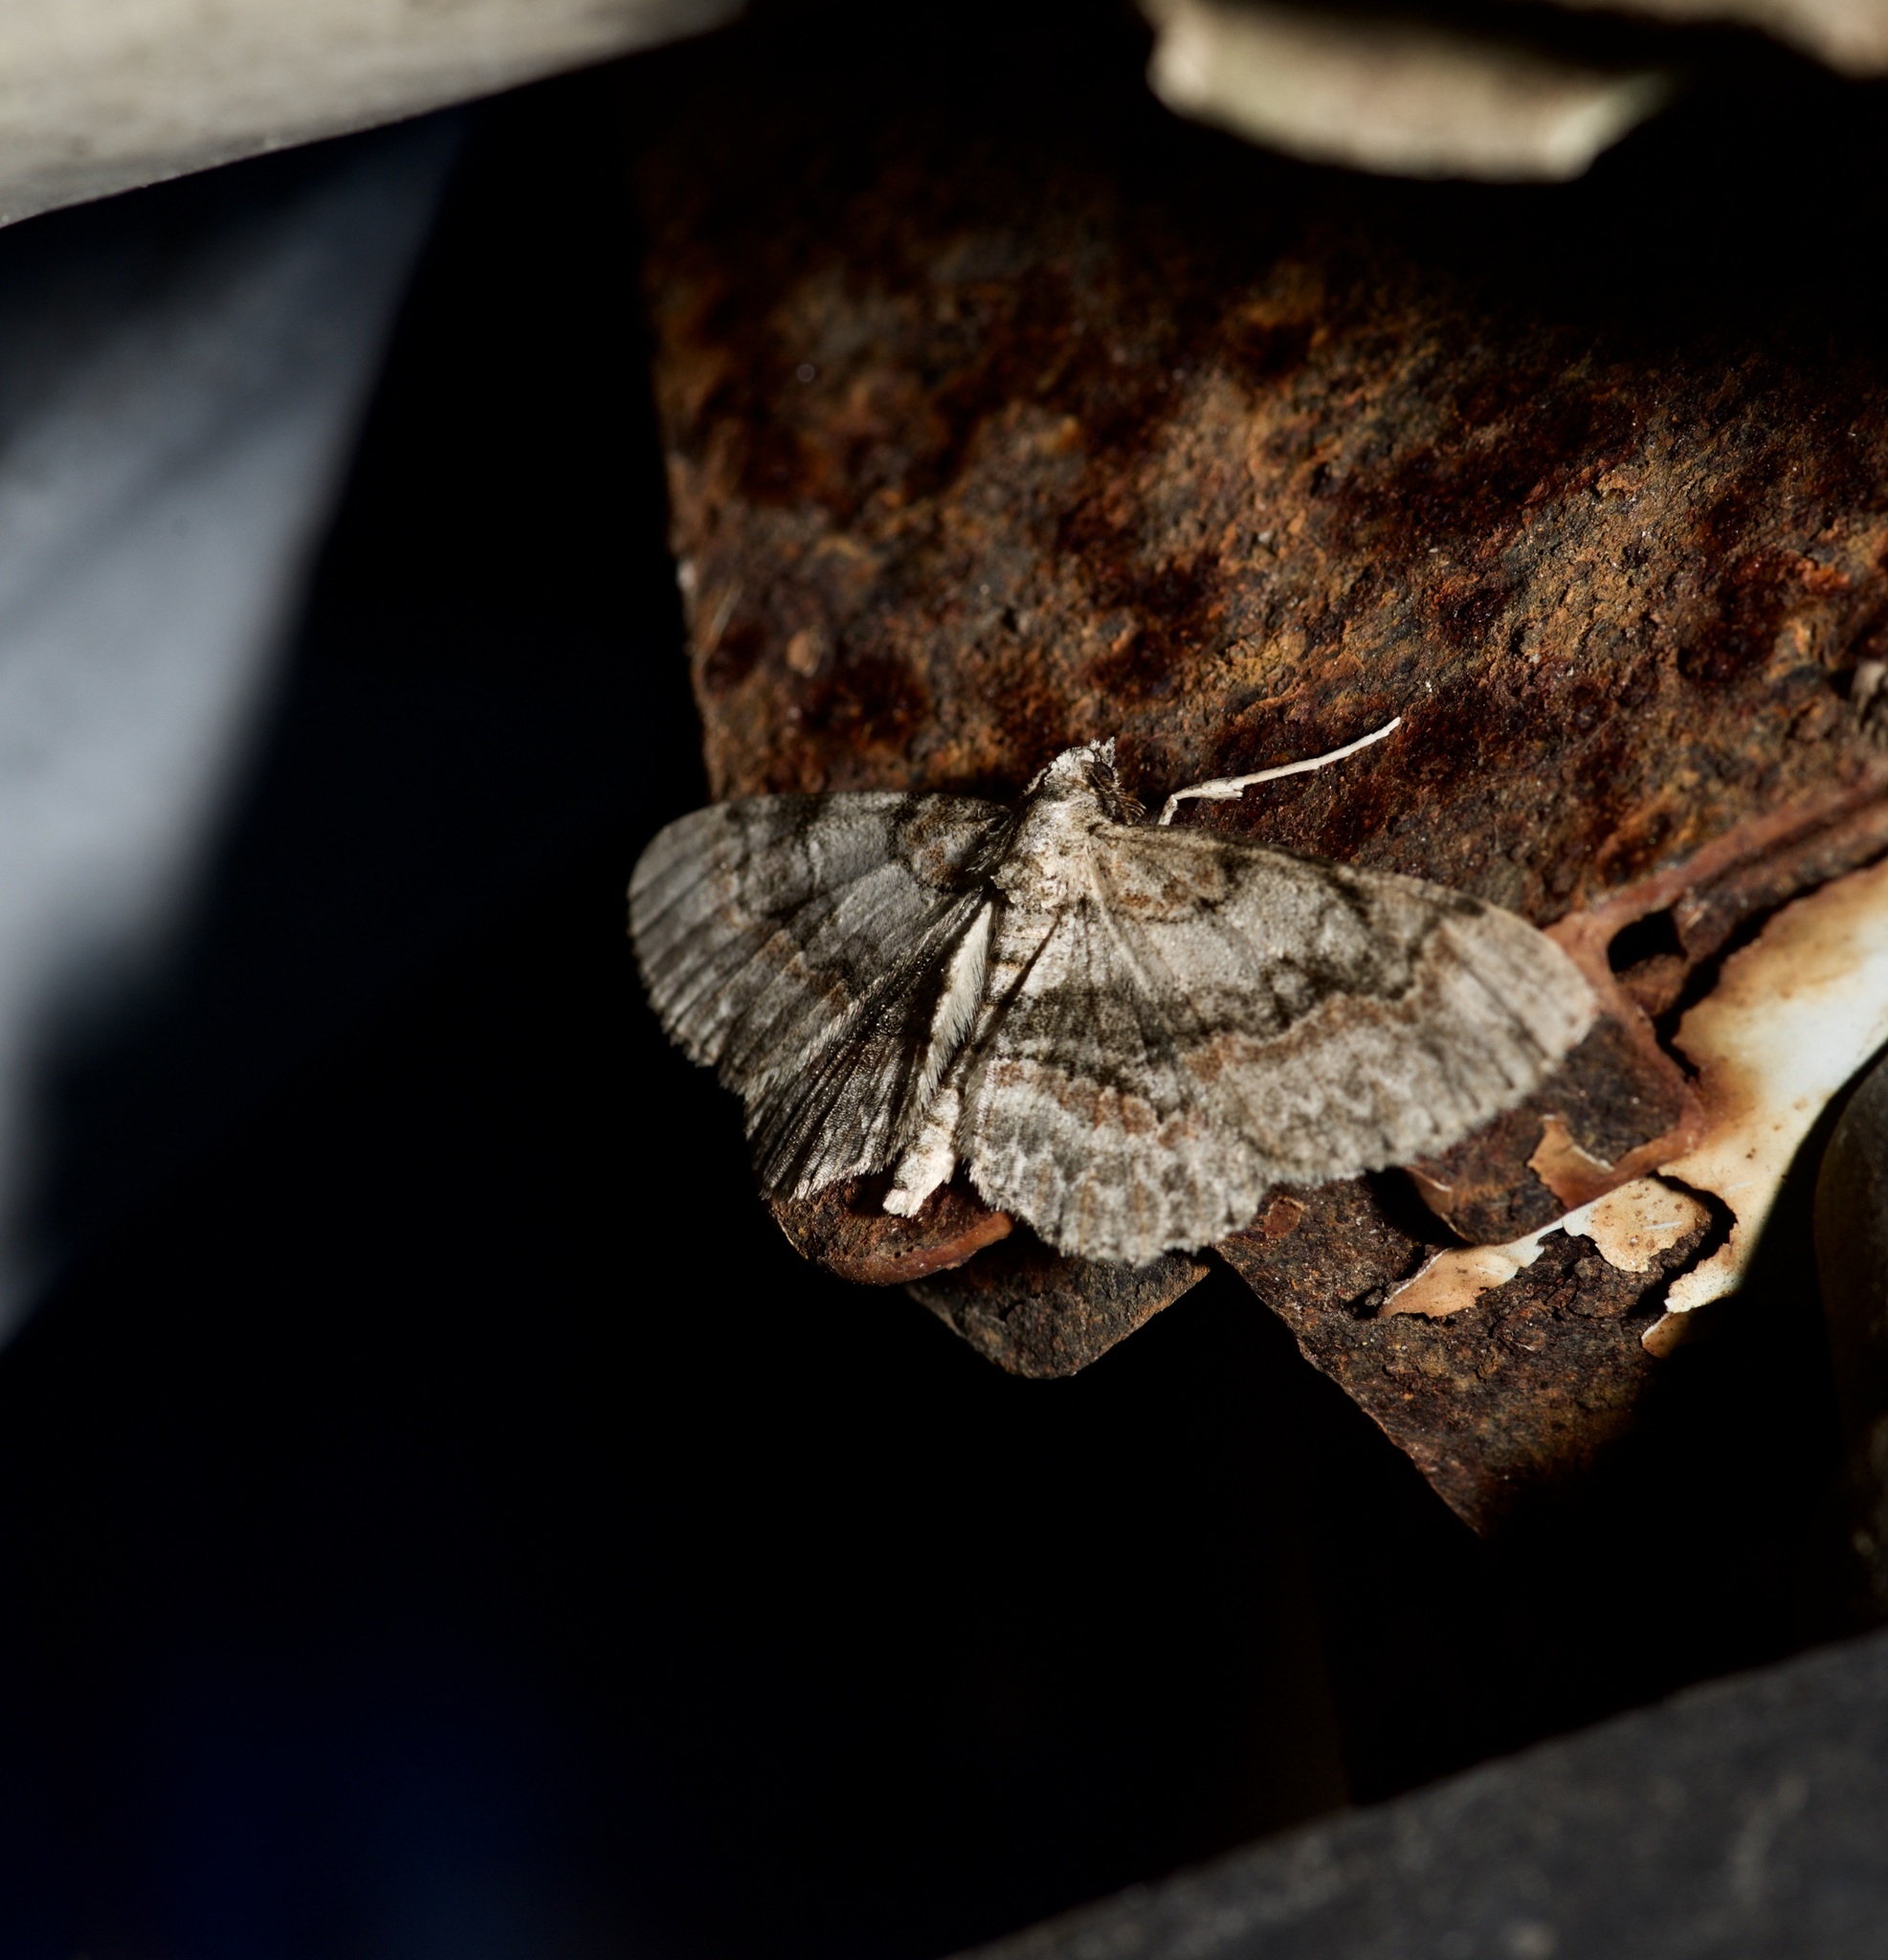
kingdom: Animalia
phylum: Arthropoda
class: Insecta
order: Lepidoptera
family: Geometridae
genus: Iridopsis
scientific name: Iridopsis ephyraria
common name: Pale-winged gray
